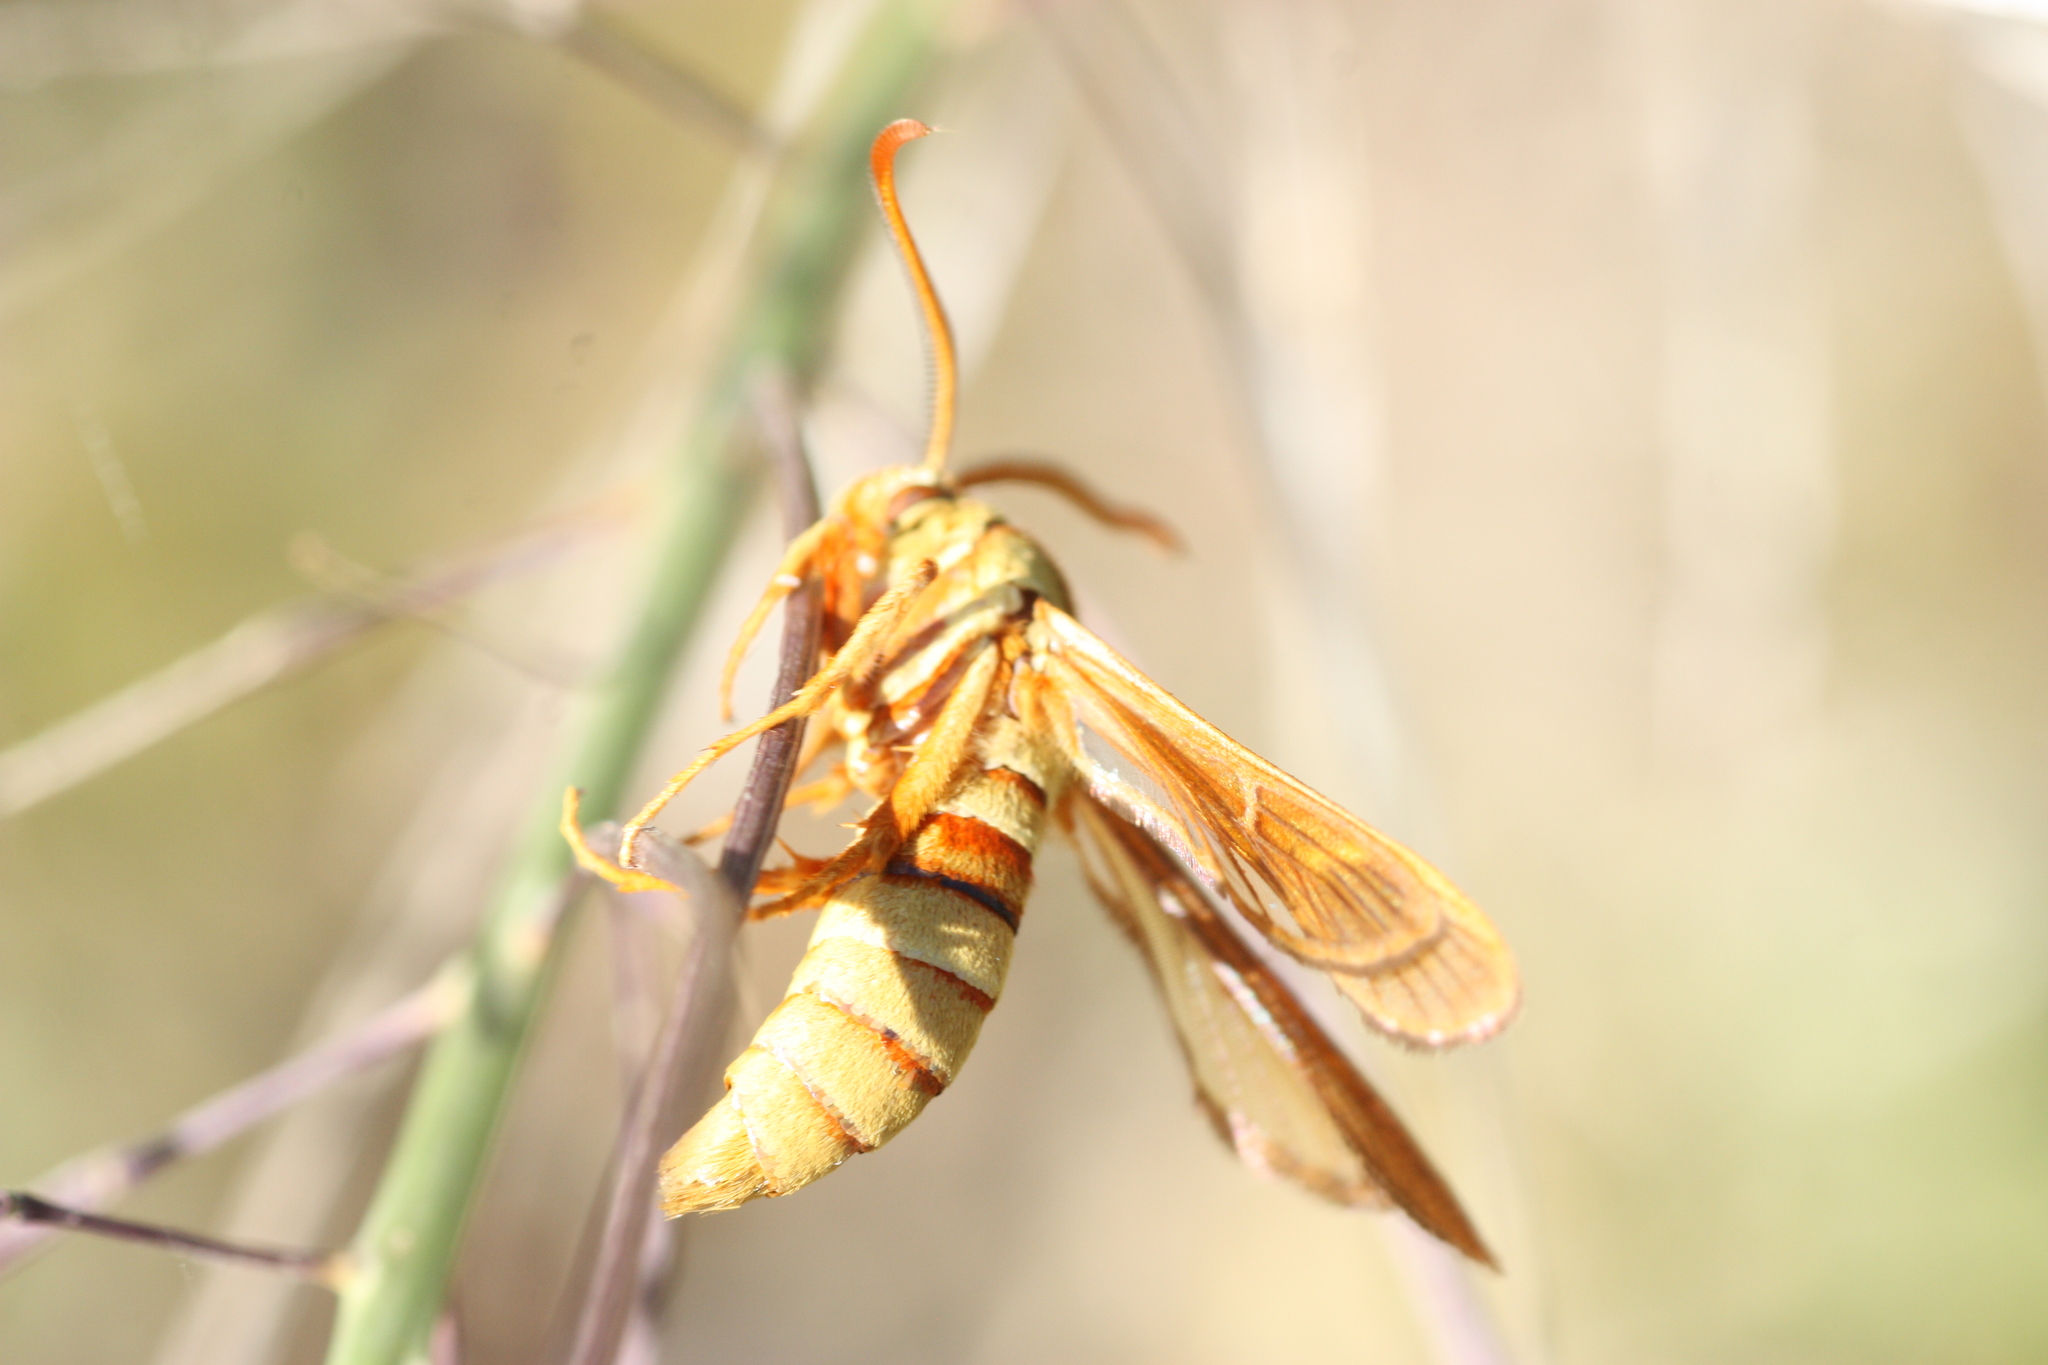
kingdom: Animalia
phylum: Arthropoda
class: Insecta
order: Lepidoptera
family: Sesiidae
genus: Paranthrene
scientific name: Paranthrene robiniae
